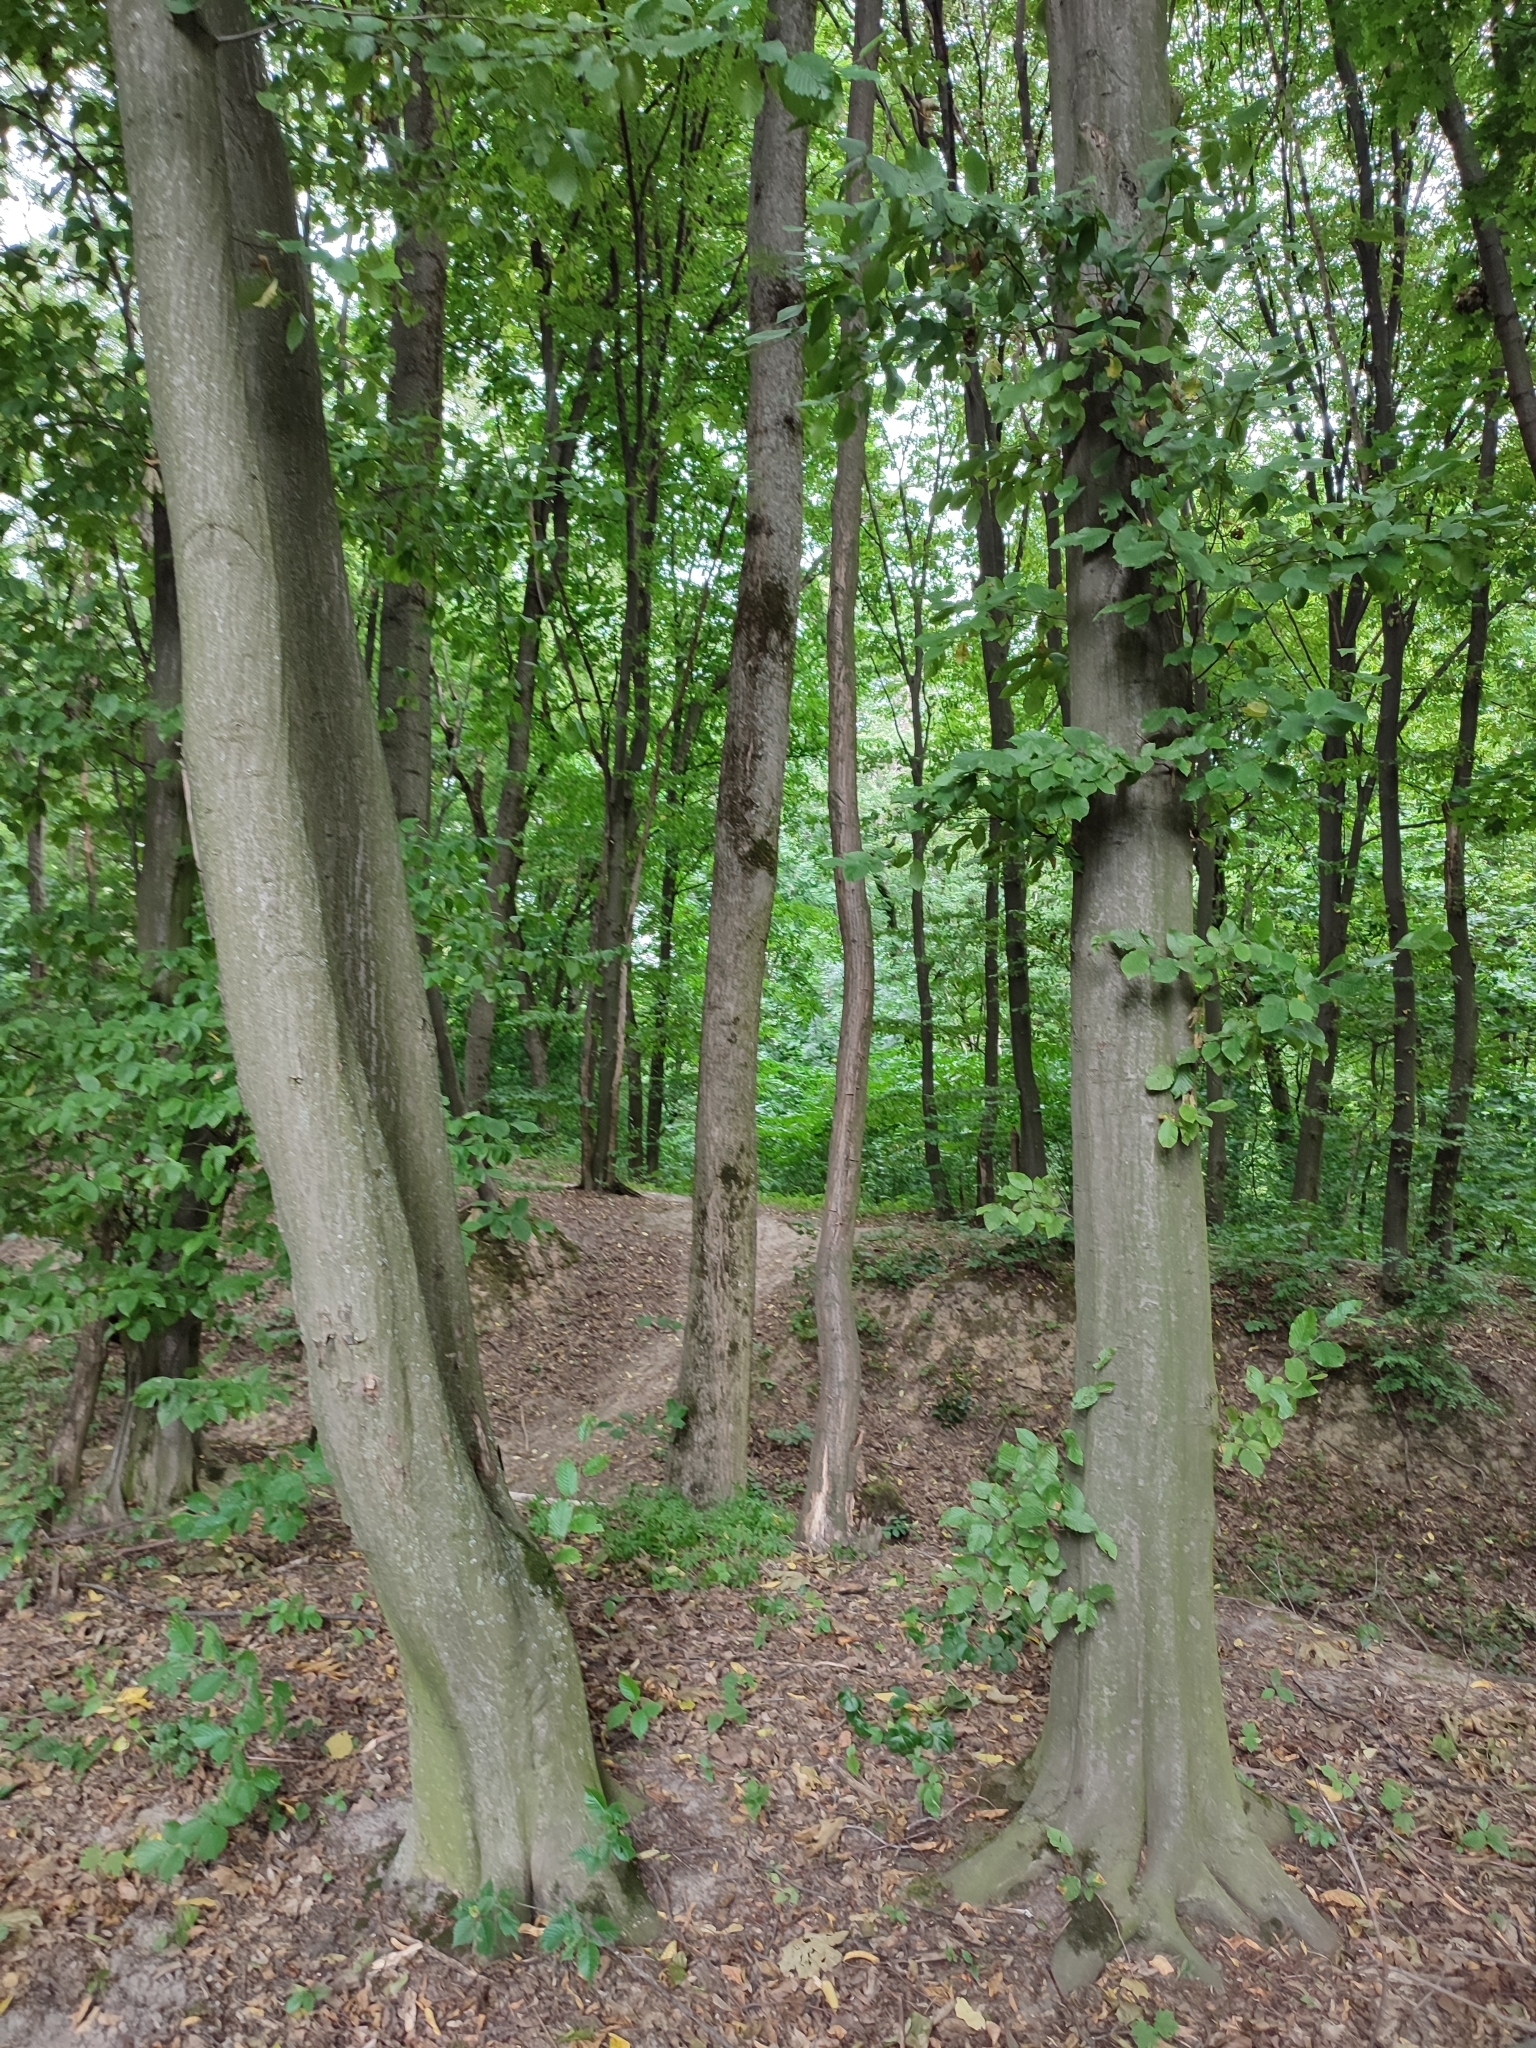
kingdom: Plantae
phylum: Tracheophyta
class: Magnoliopsida
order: Fagales
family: Betulaceae
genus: Carpinus
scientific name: Carpinus betulus
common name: Hornbeam
